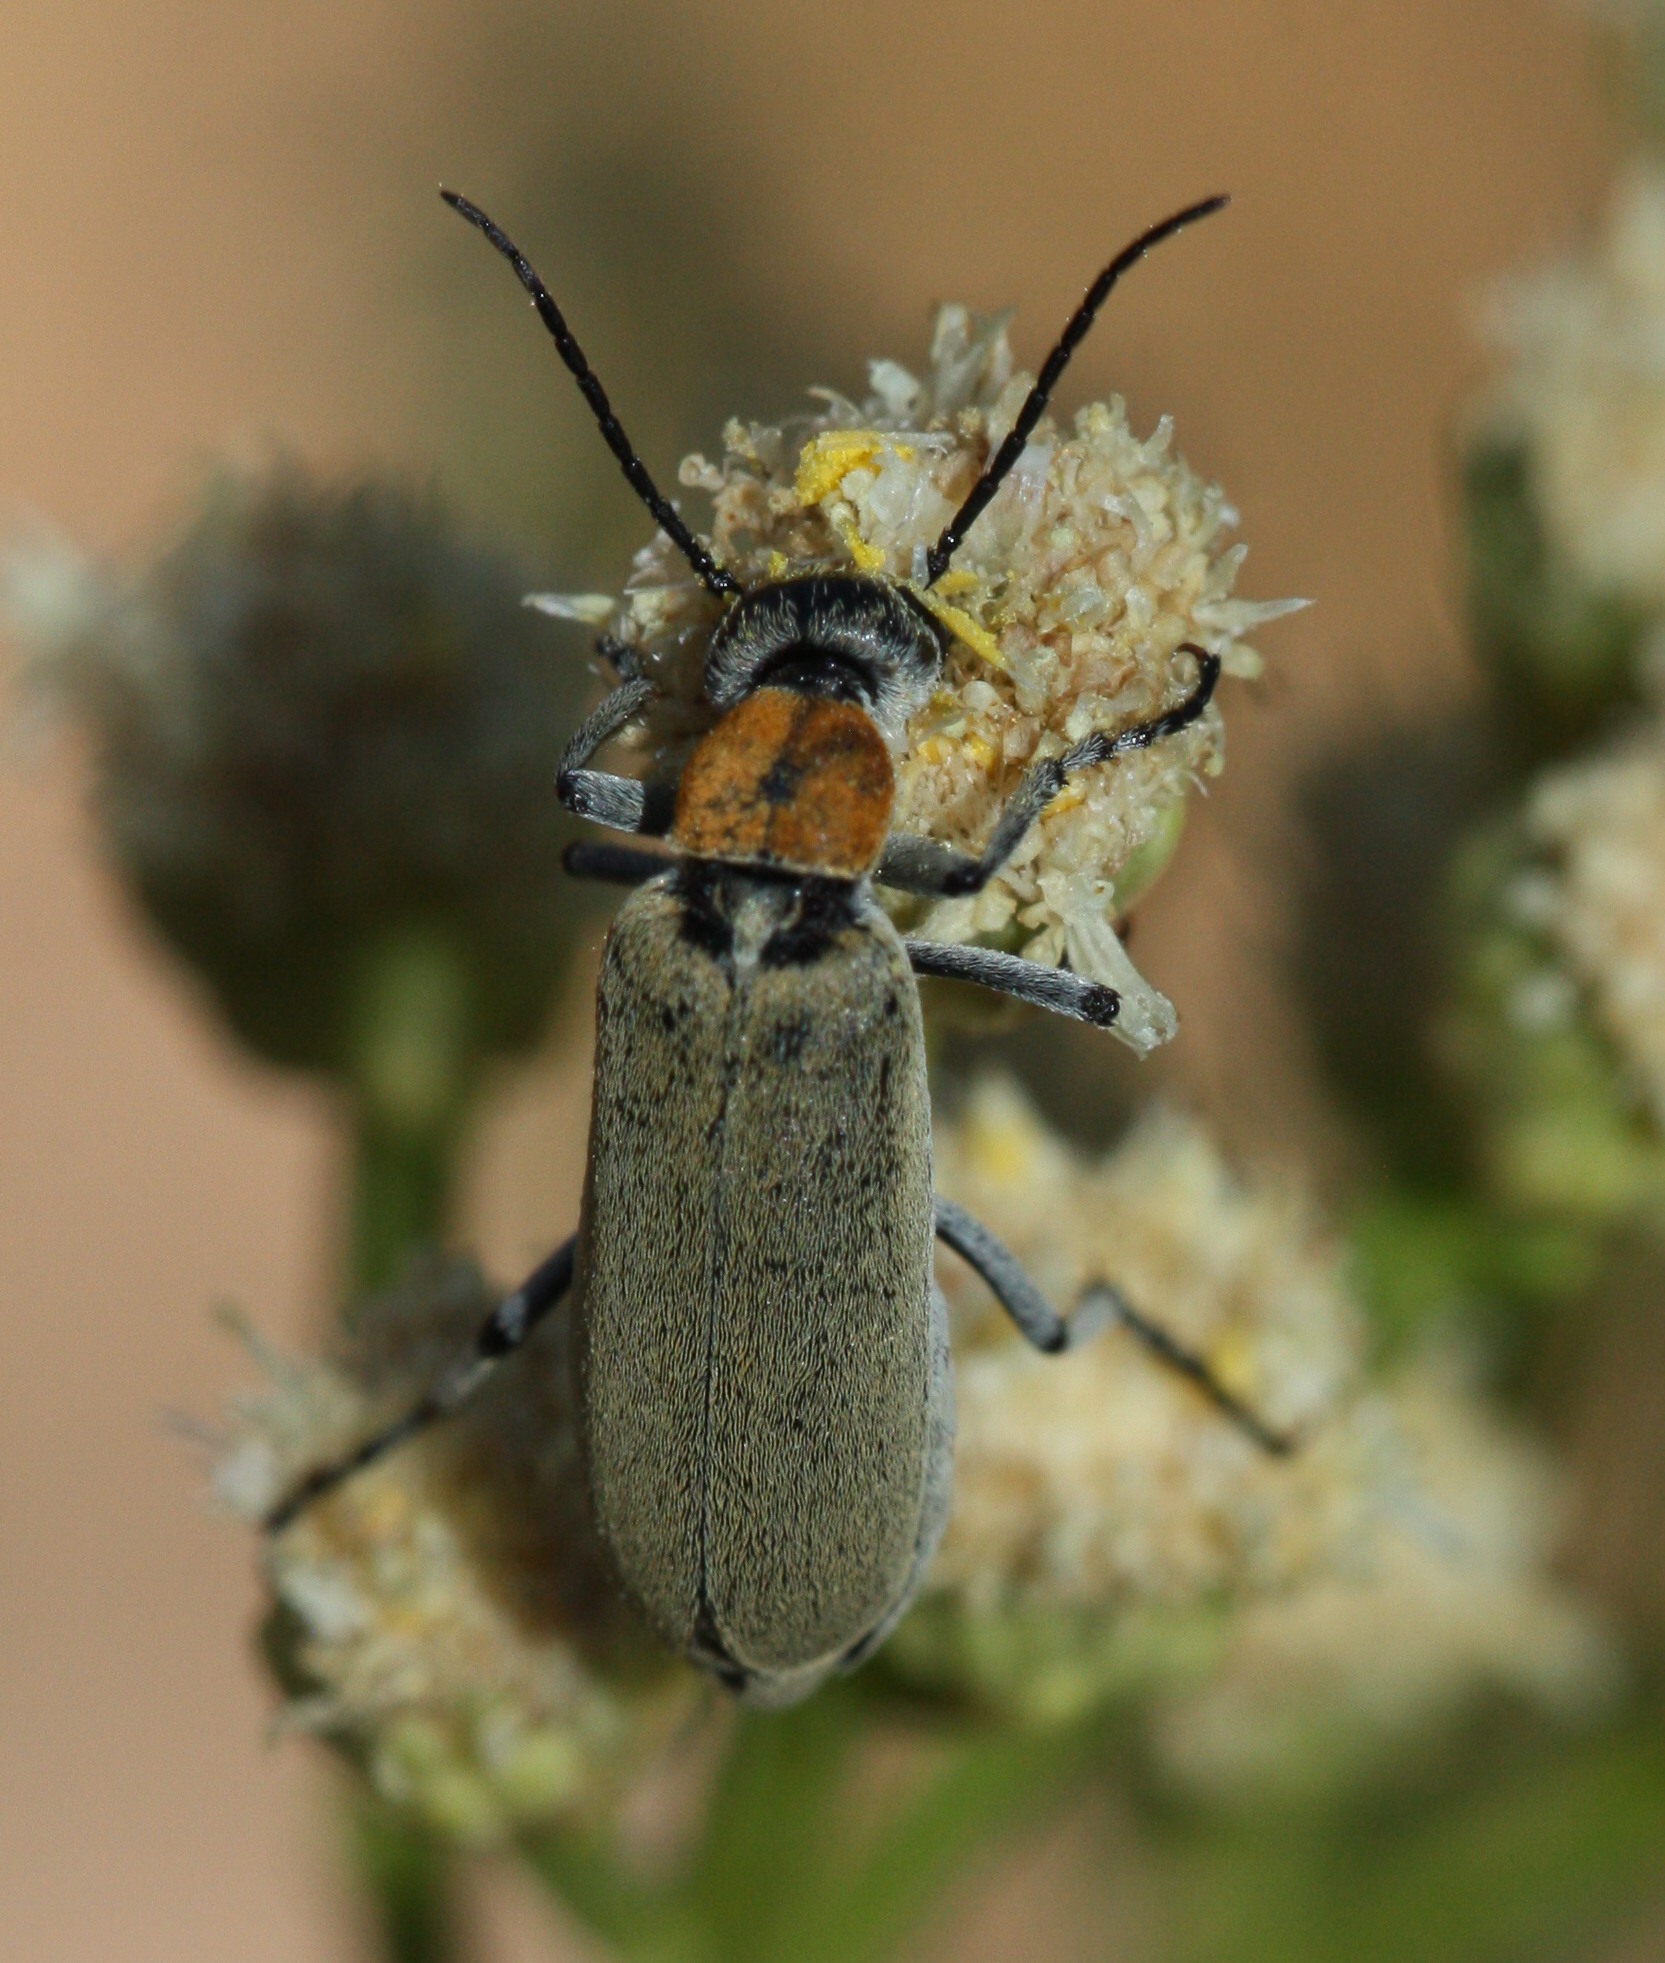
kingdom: Animalia
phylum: Arthropoda
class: Insecta
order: Coleoptera
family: Meloidae
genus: Epicauta
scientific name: Epicauta wheeleri
